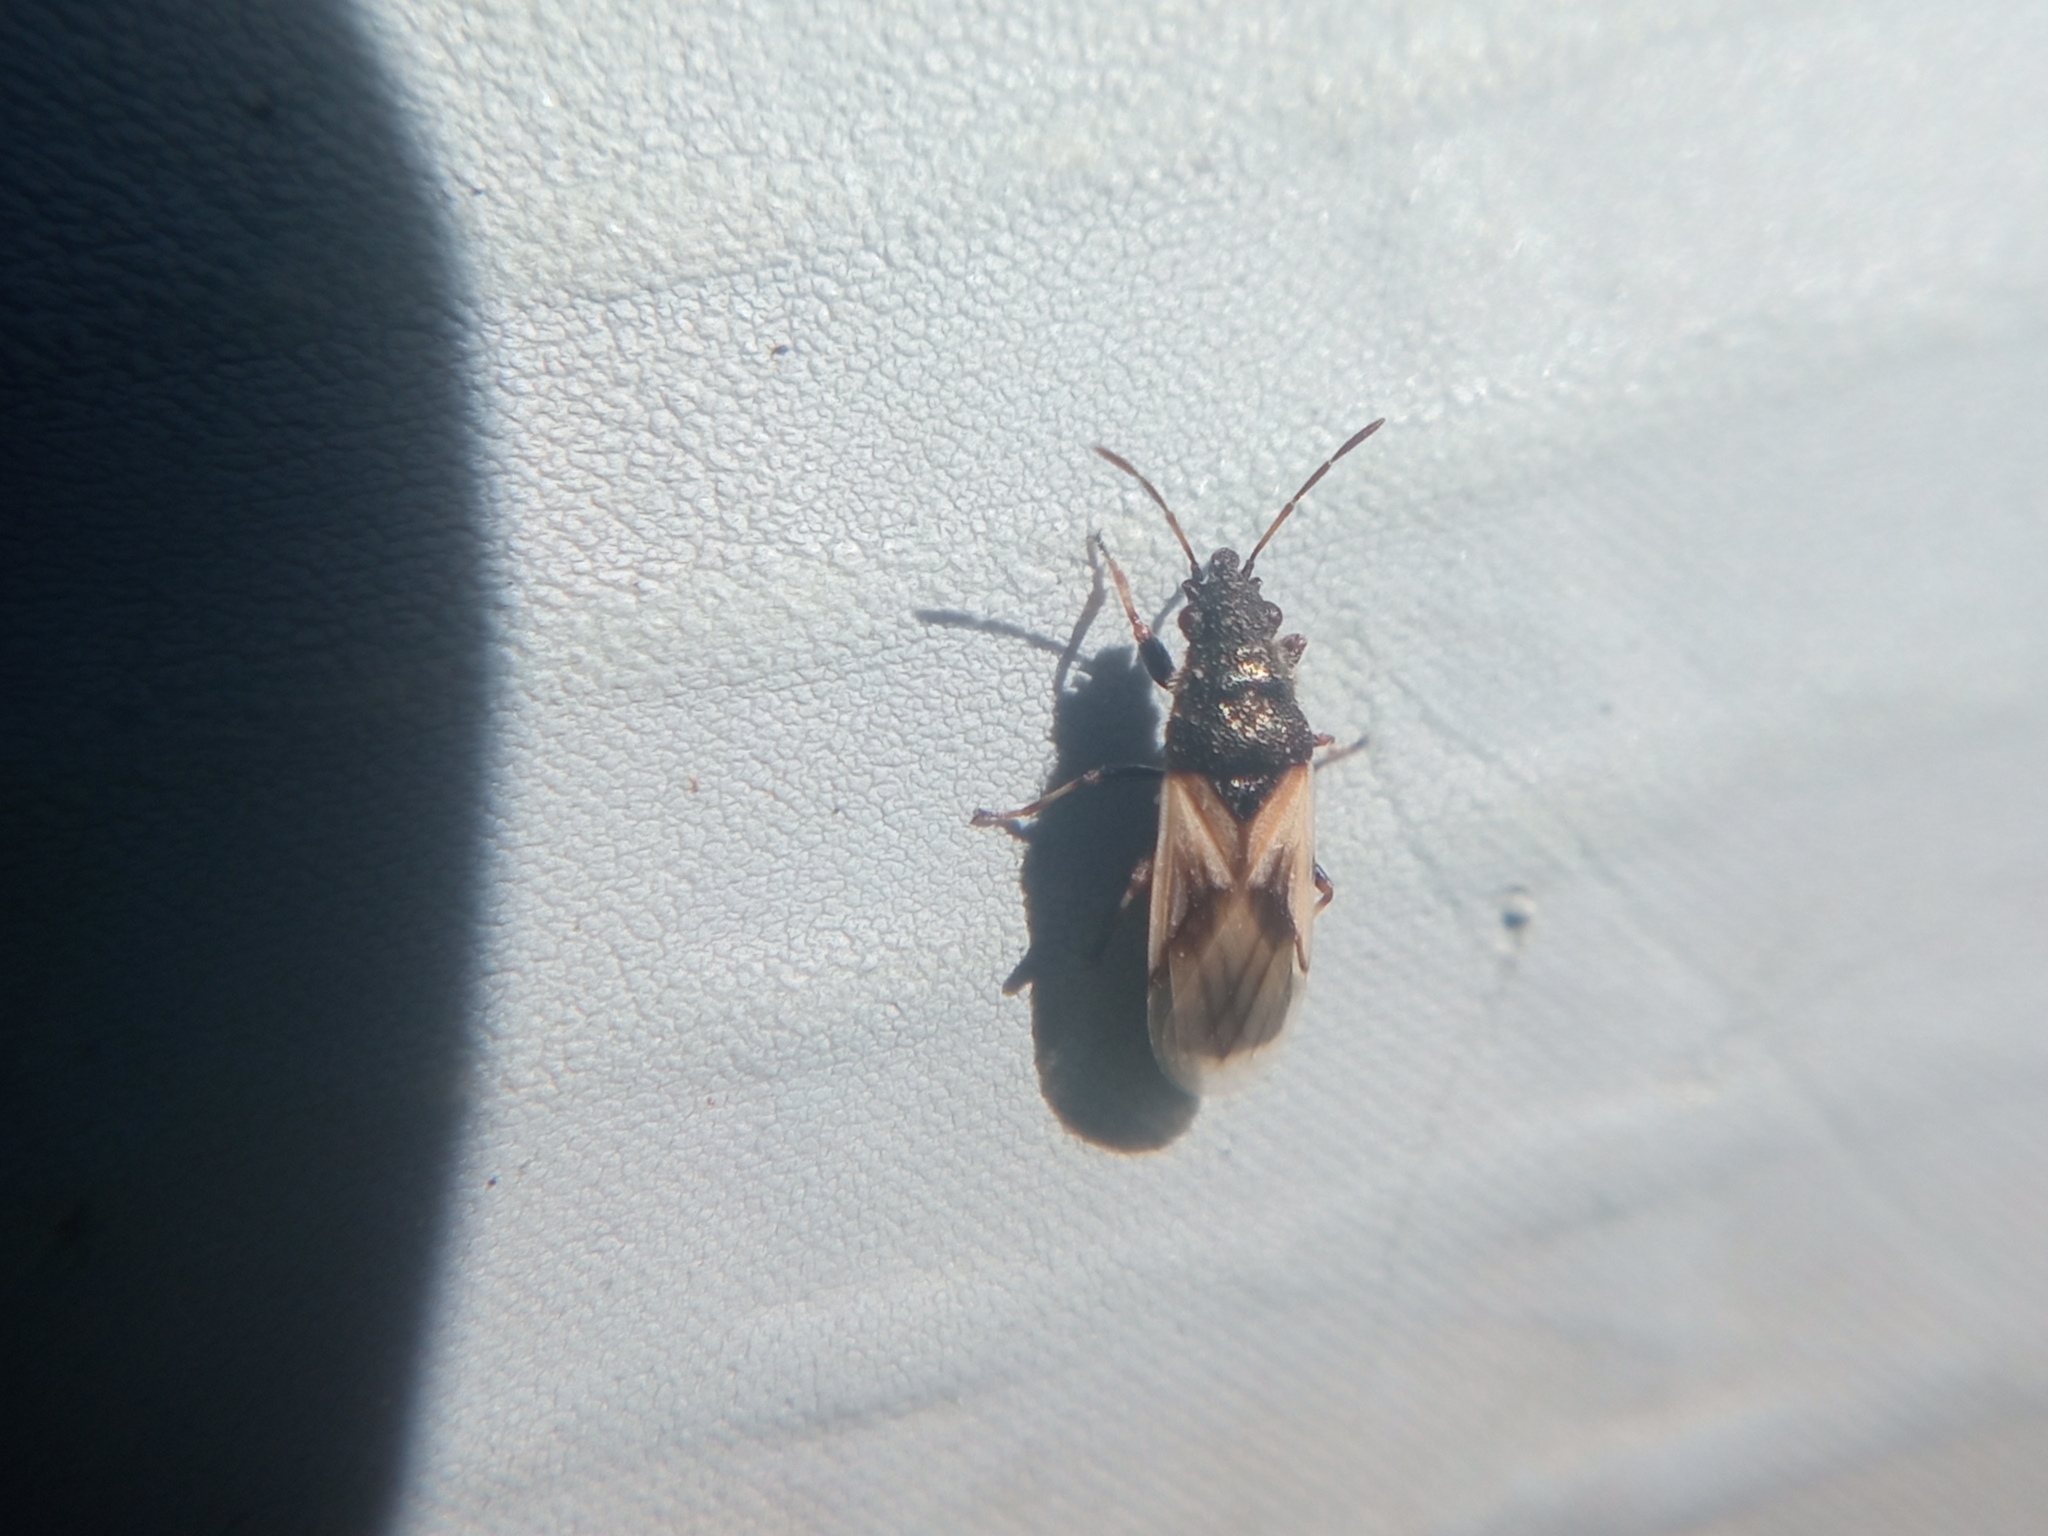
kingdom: Animalia
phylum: Arthropoda
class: Insecta
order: Hemiptera
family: Oxycarenidae
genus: Metopoplax
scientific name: Metopoplax ditomoides
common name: Seed bug
